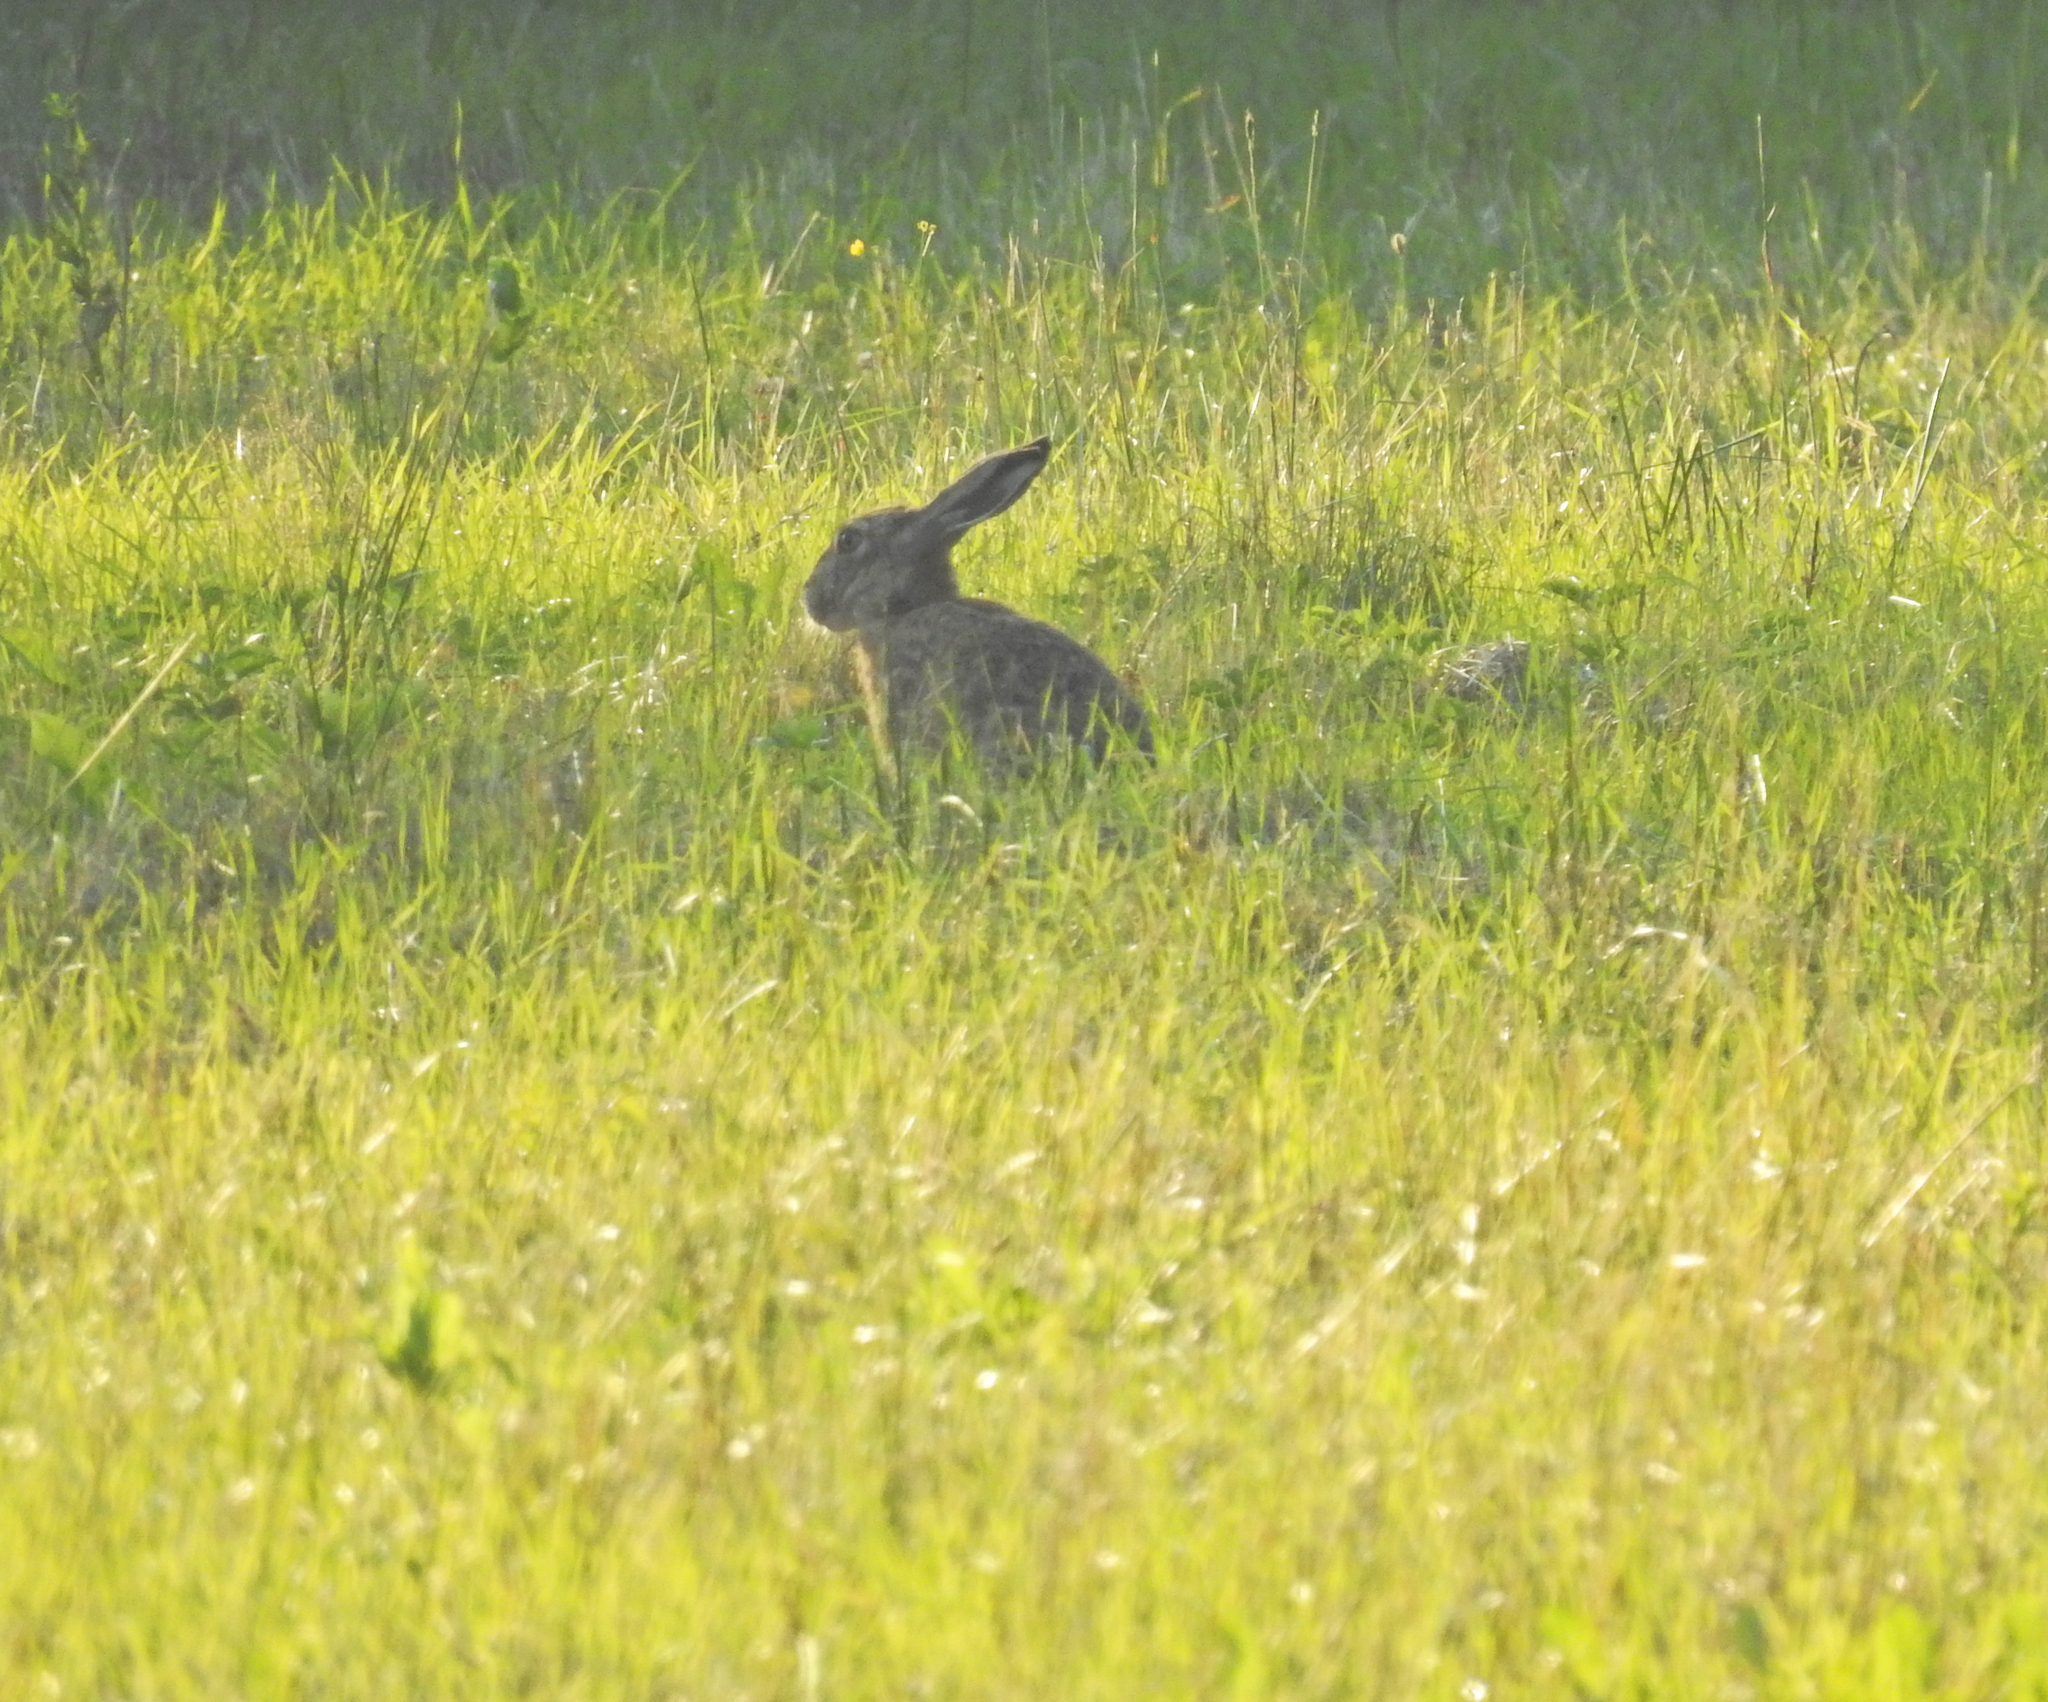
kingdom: Animalia
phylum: Chordata
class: Mammalia
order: Lagomorpha
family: Leporidae
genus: Lepus
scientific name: Lepus europaeus
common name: European hare
